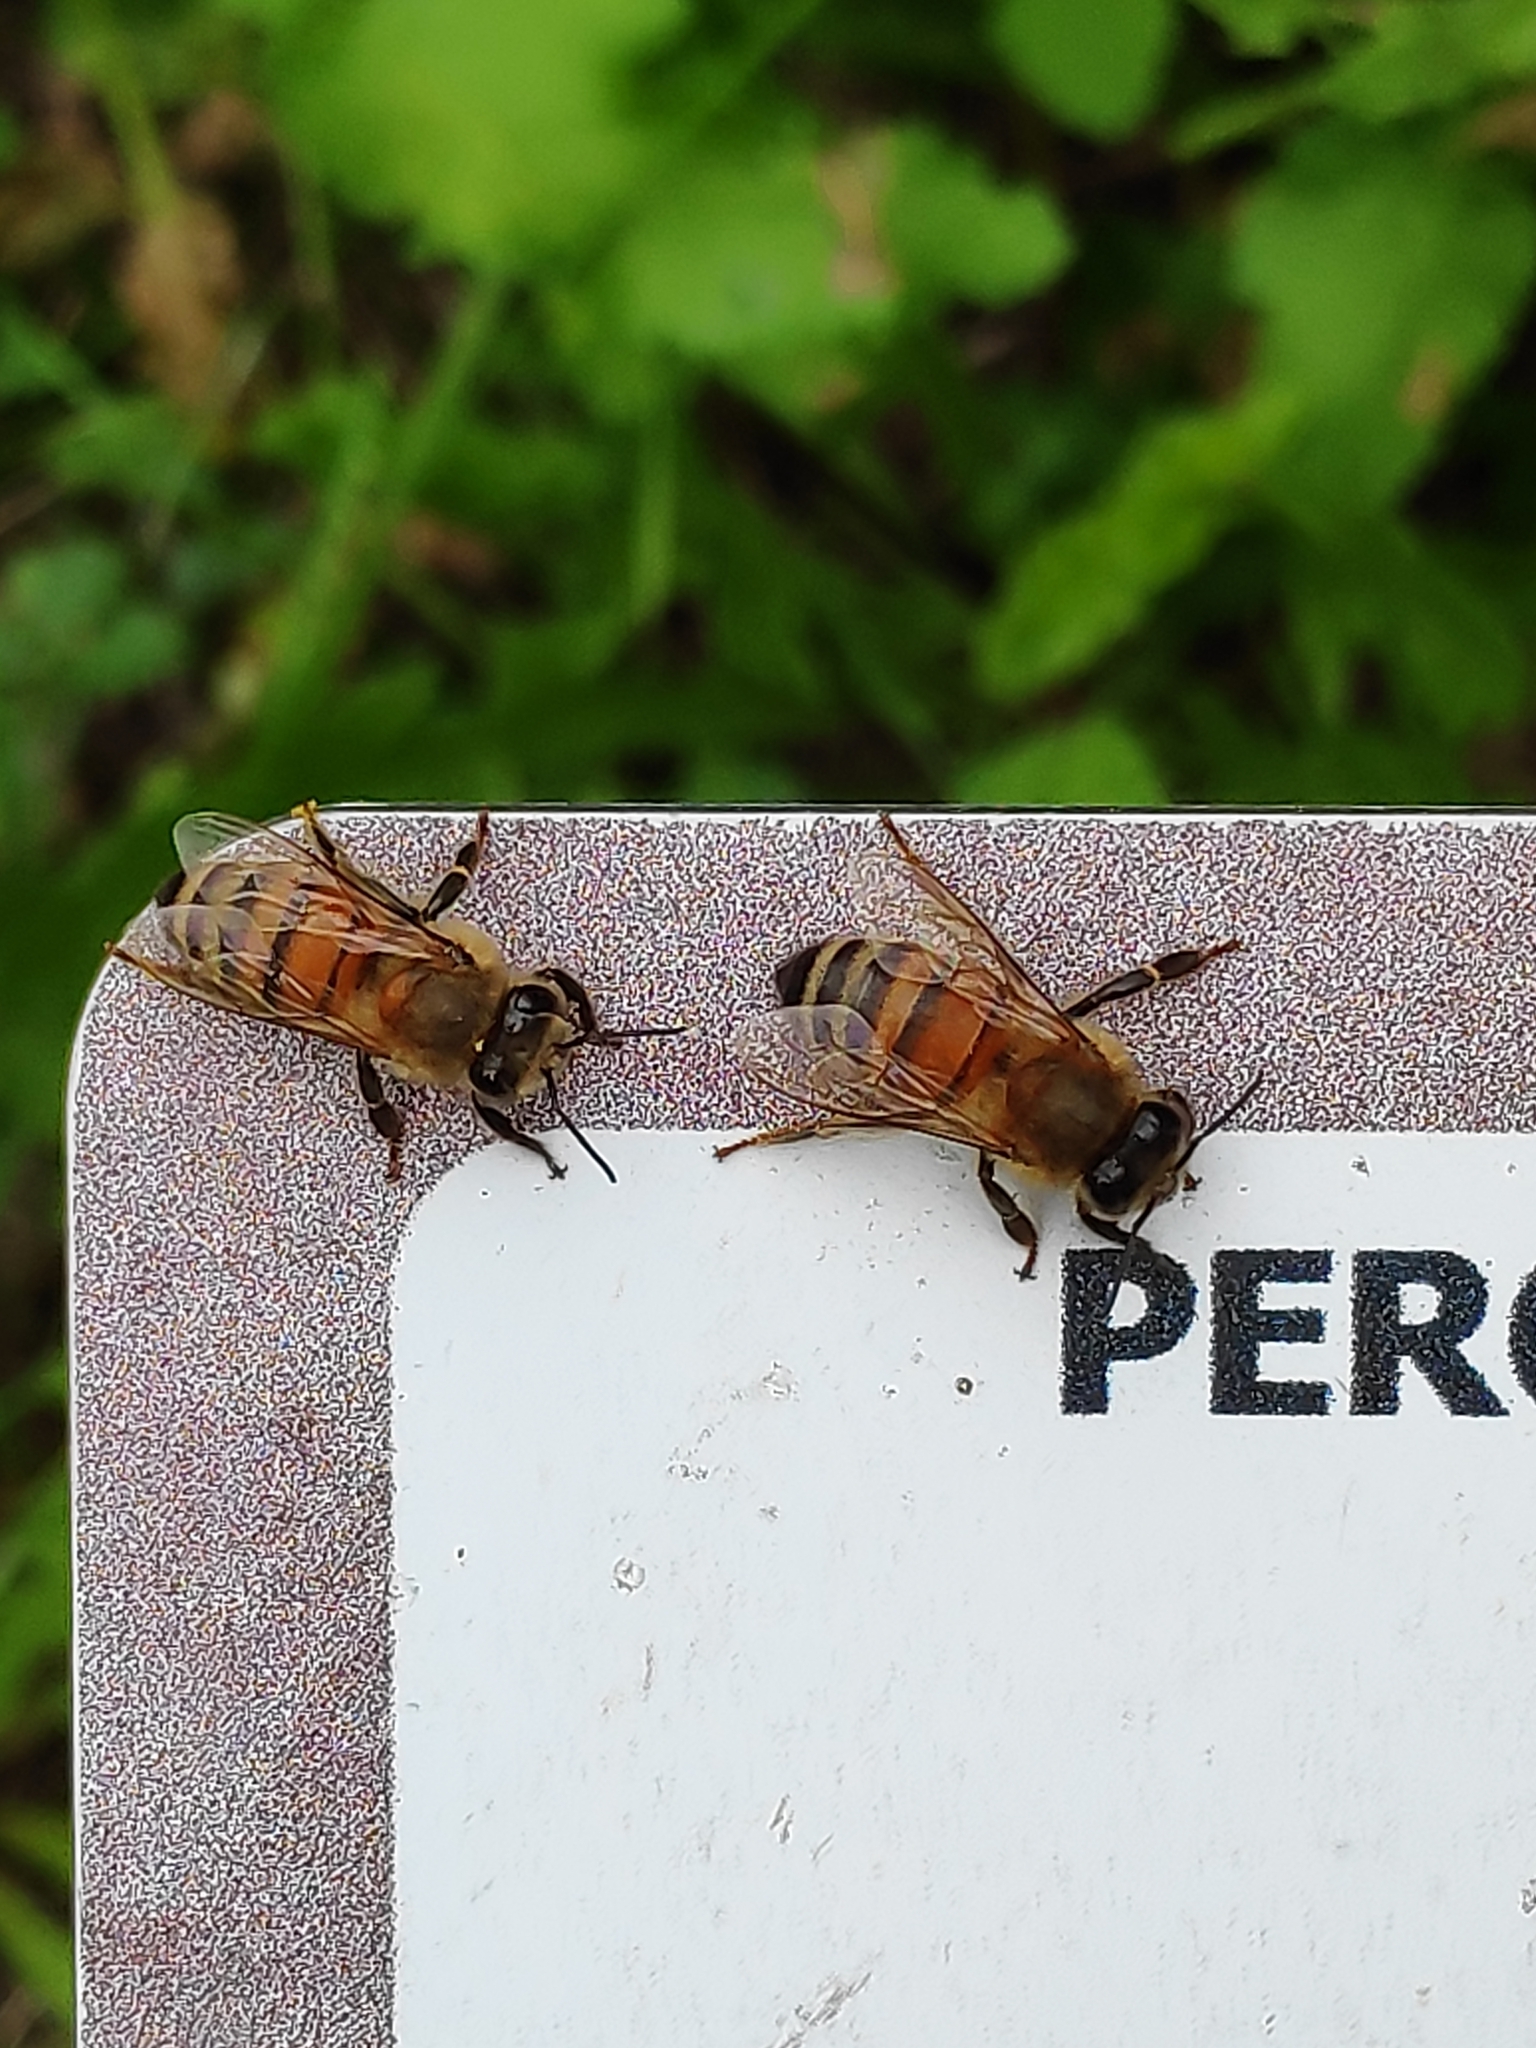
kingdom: Animalia
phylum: Arthropoda
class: Insecta
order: Hymenoptera
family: Apidae
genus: Apis
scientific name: Apis mellifera
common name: Honey bee
